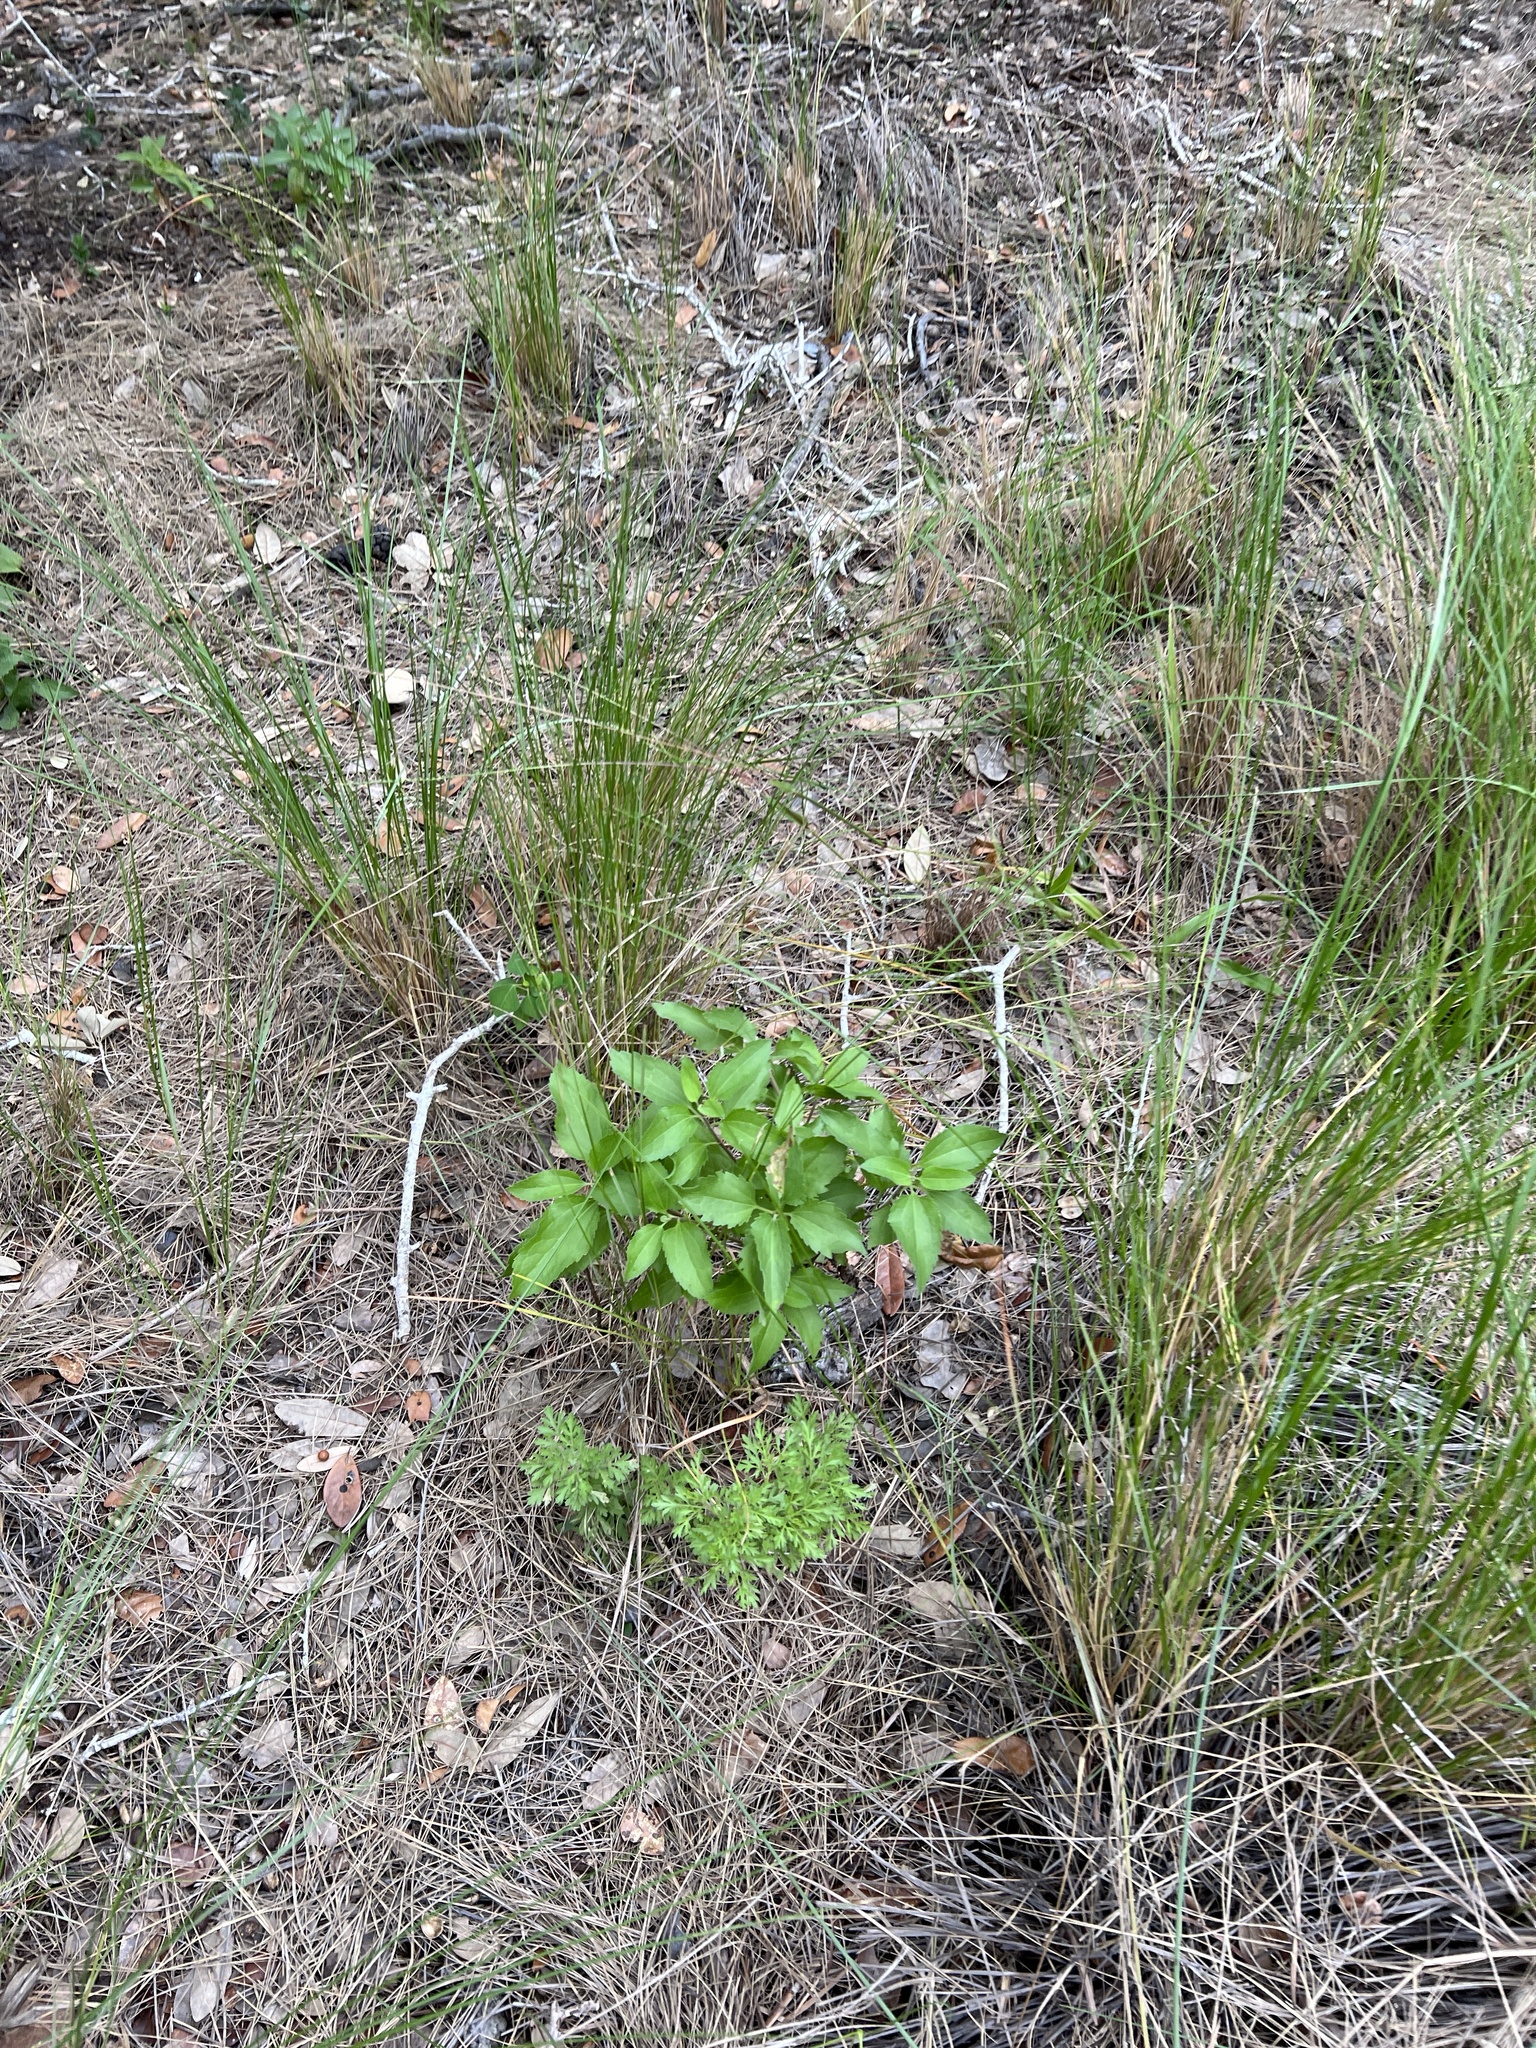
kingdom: Plantae
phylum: Tracheophyta
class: Magnoliopsida
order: Asterales
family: Asteraceae
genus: Iva
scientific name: Iva frutescens
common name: Big-leaved marsh-elder
